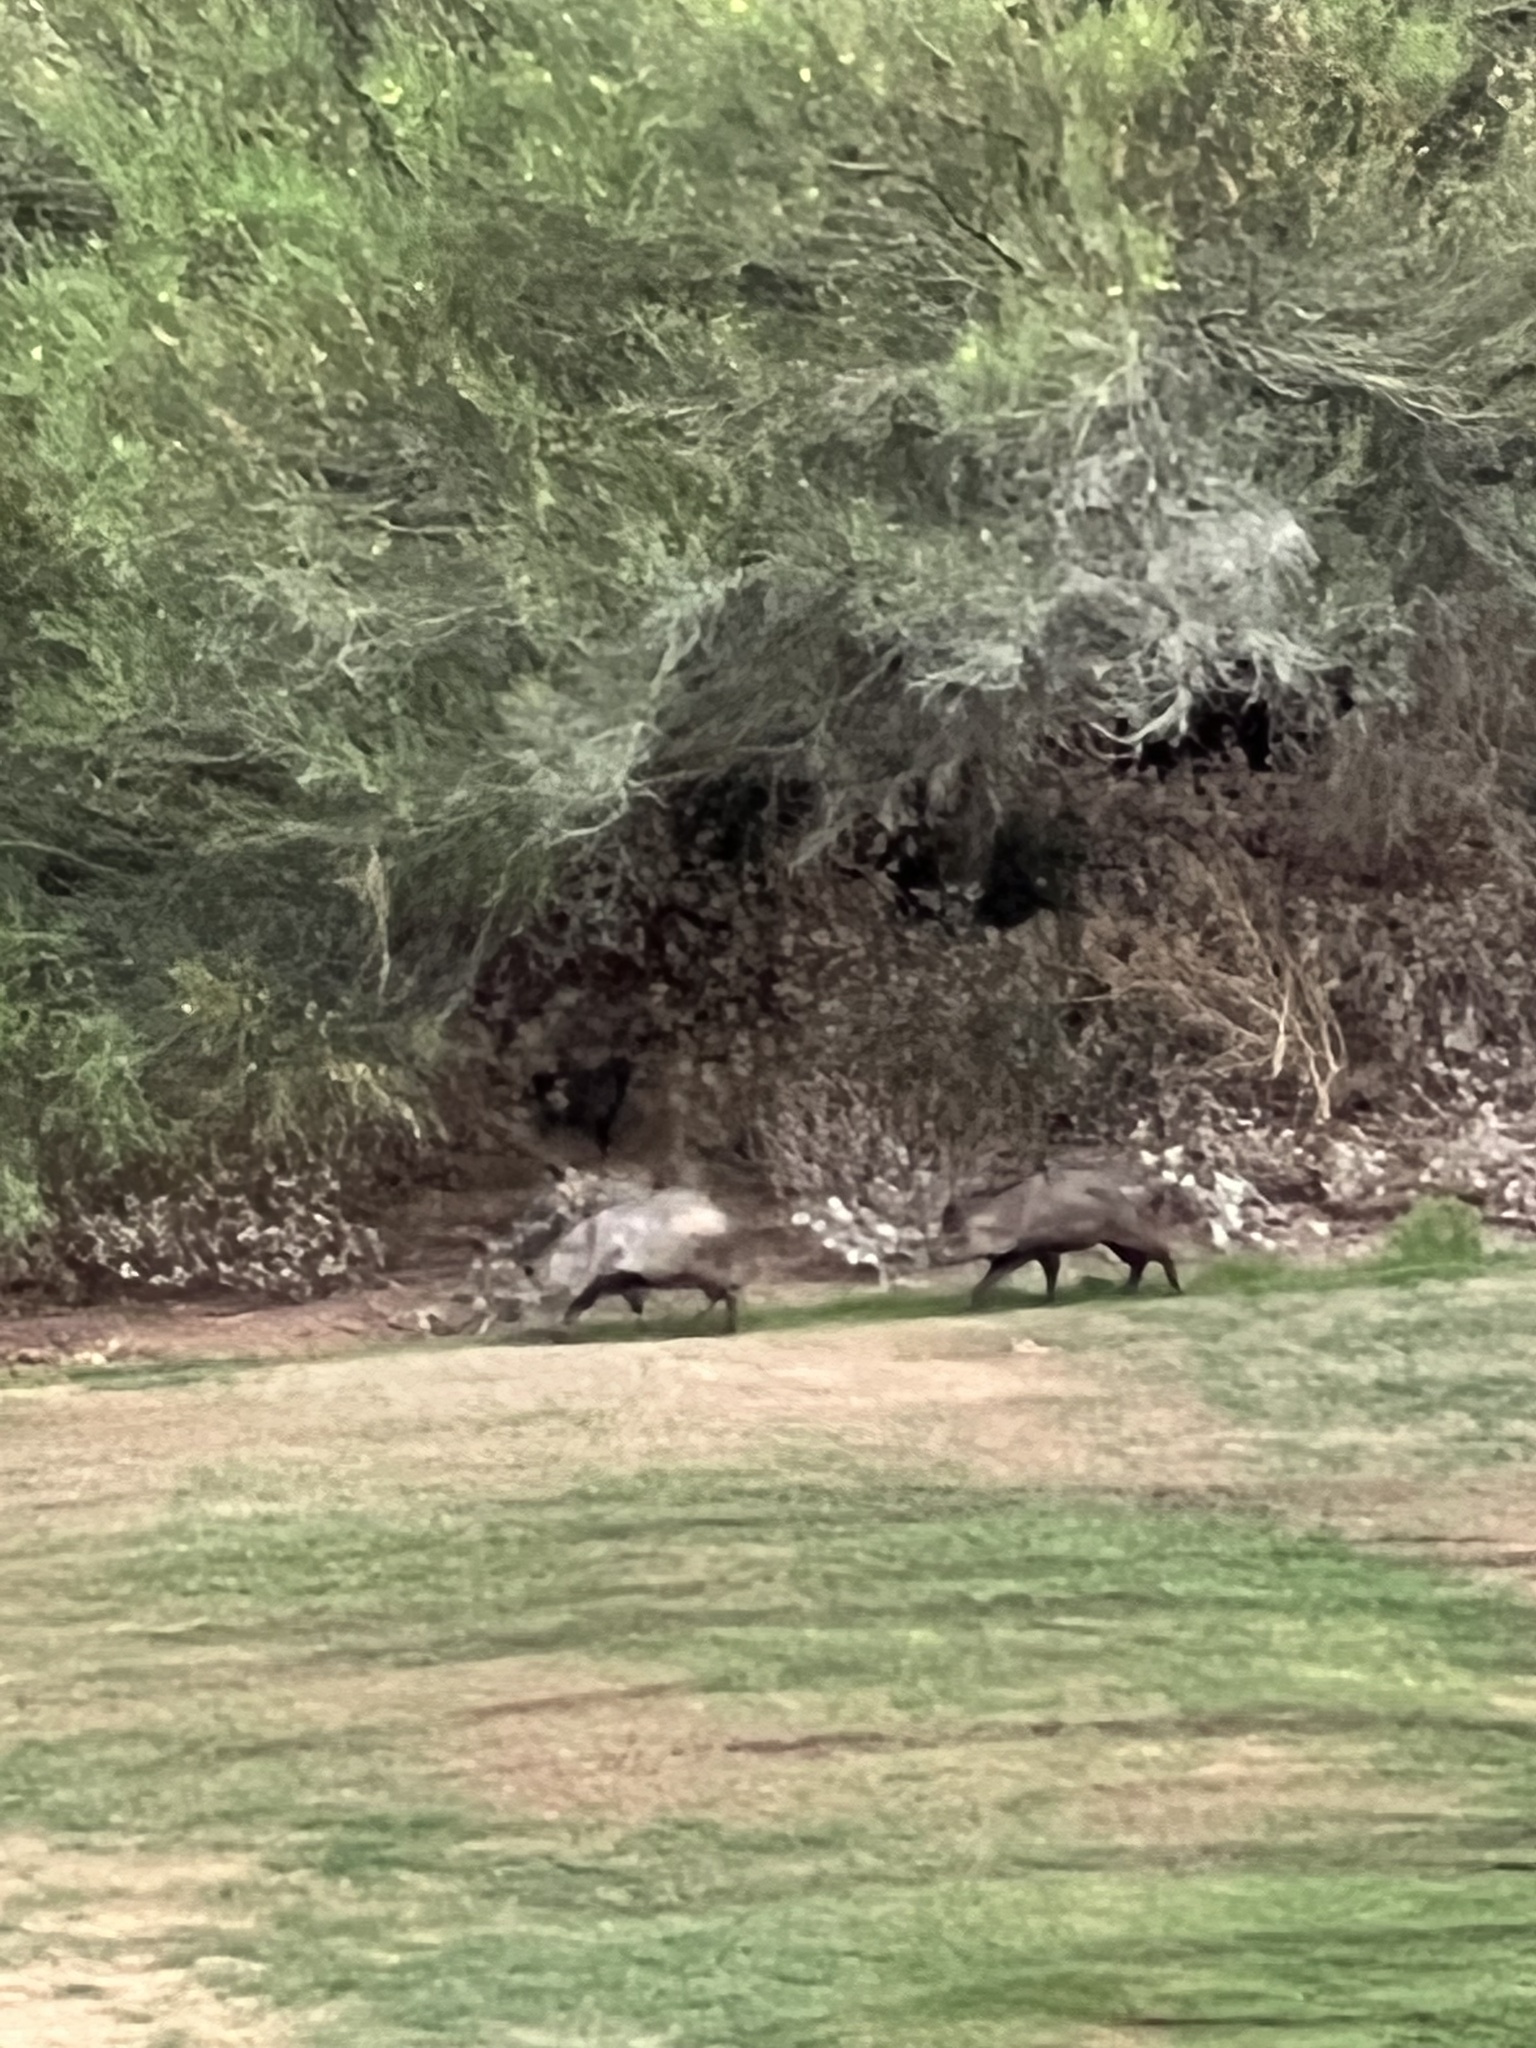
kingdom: Animalia
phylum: Chordata
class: Mammalia
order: Artiodactyla
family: Tayassuidae
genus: Pecari
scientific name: Pecari tajacu
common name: Collared peccary
